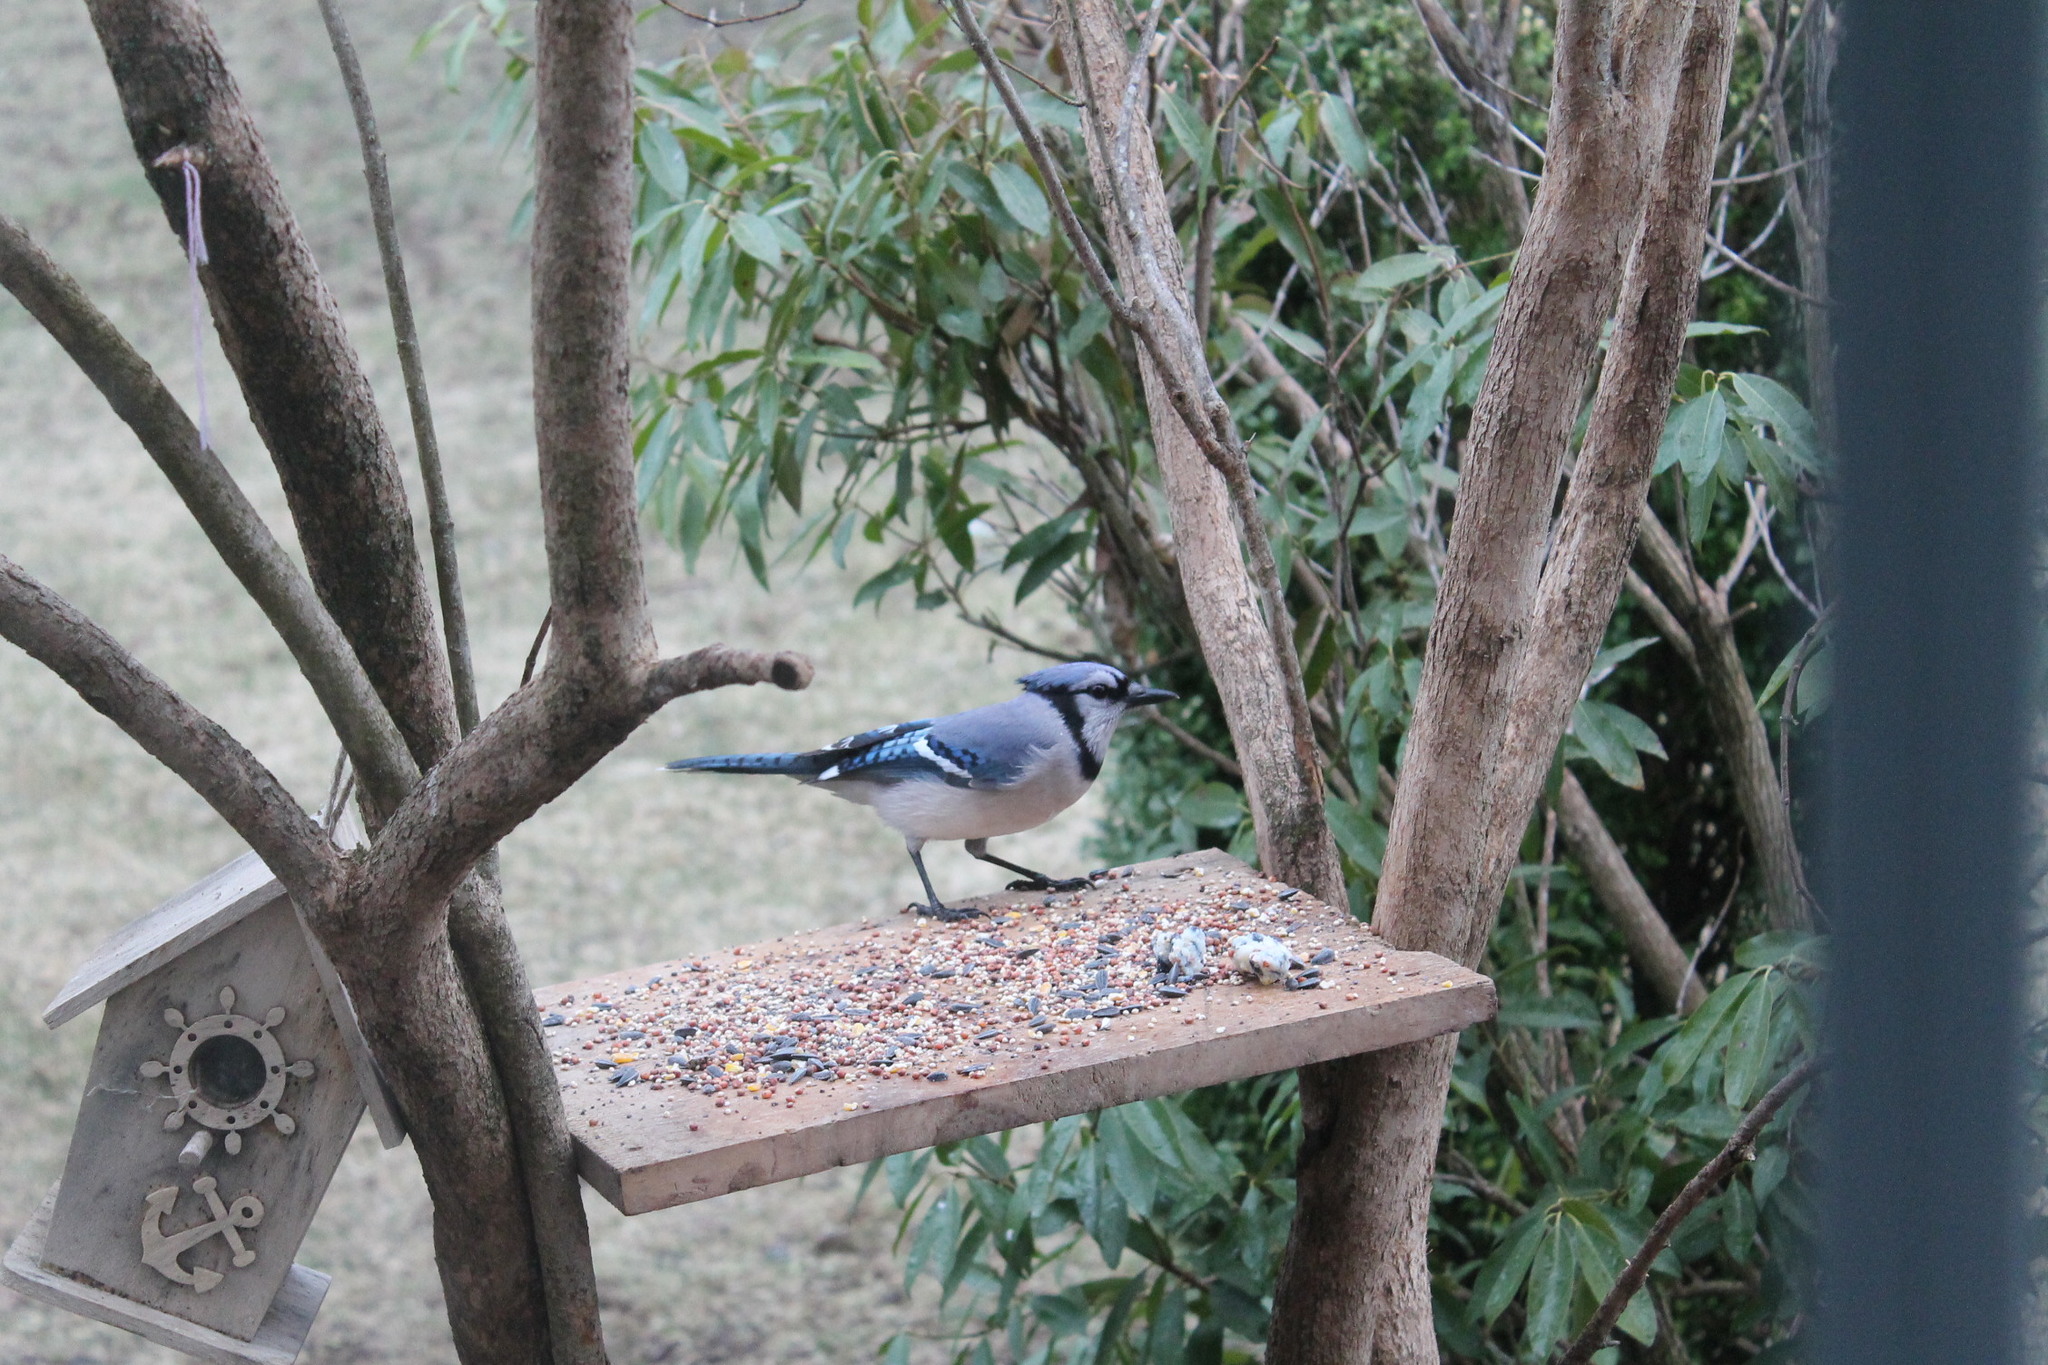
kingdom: Animalia
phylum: Chordata
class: Aves
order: Passeriformes
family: Corvidae
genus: Cyanocitta
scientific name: Cyanocitta cristata
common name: Blue jay
